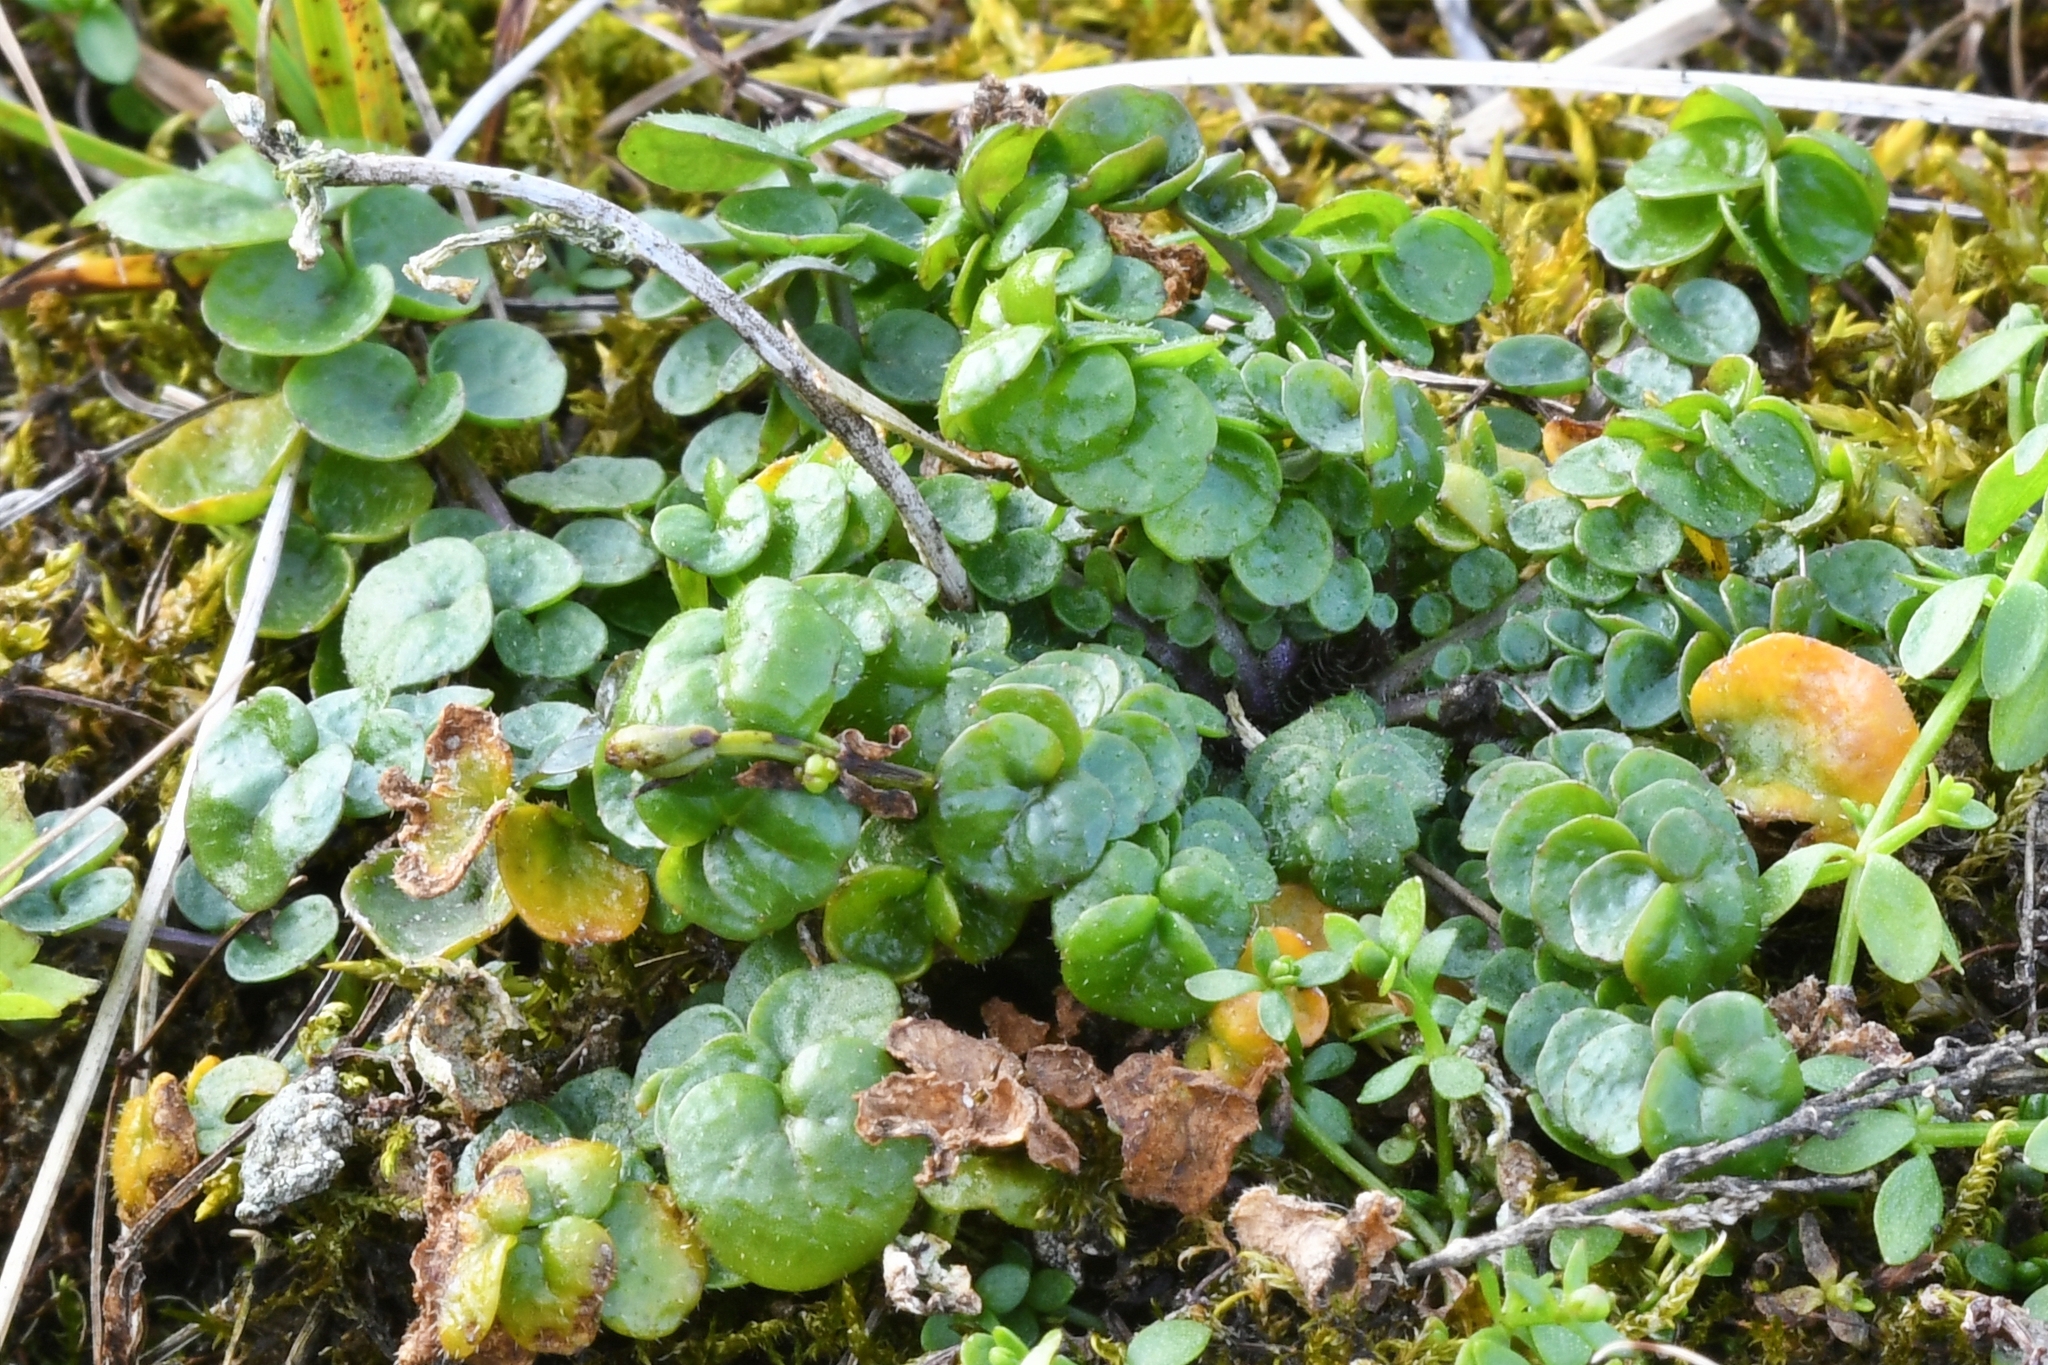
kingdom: Plantae
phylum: Tracheophyta
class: Magnoliopsida
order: Ericales
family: Primulaceae
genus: Lysimachia
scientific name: Lysimachia nummularia
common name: Moneywort
